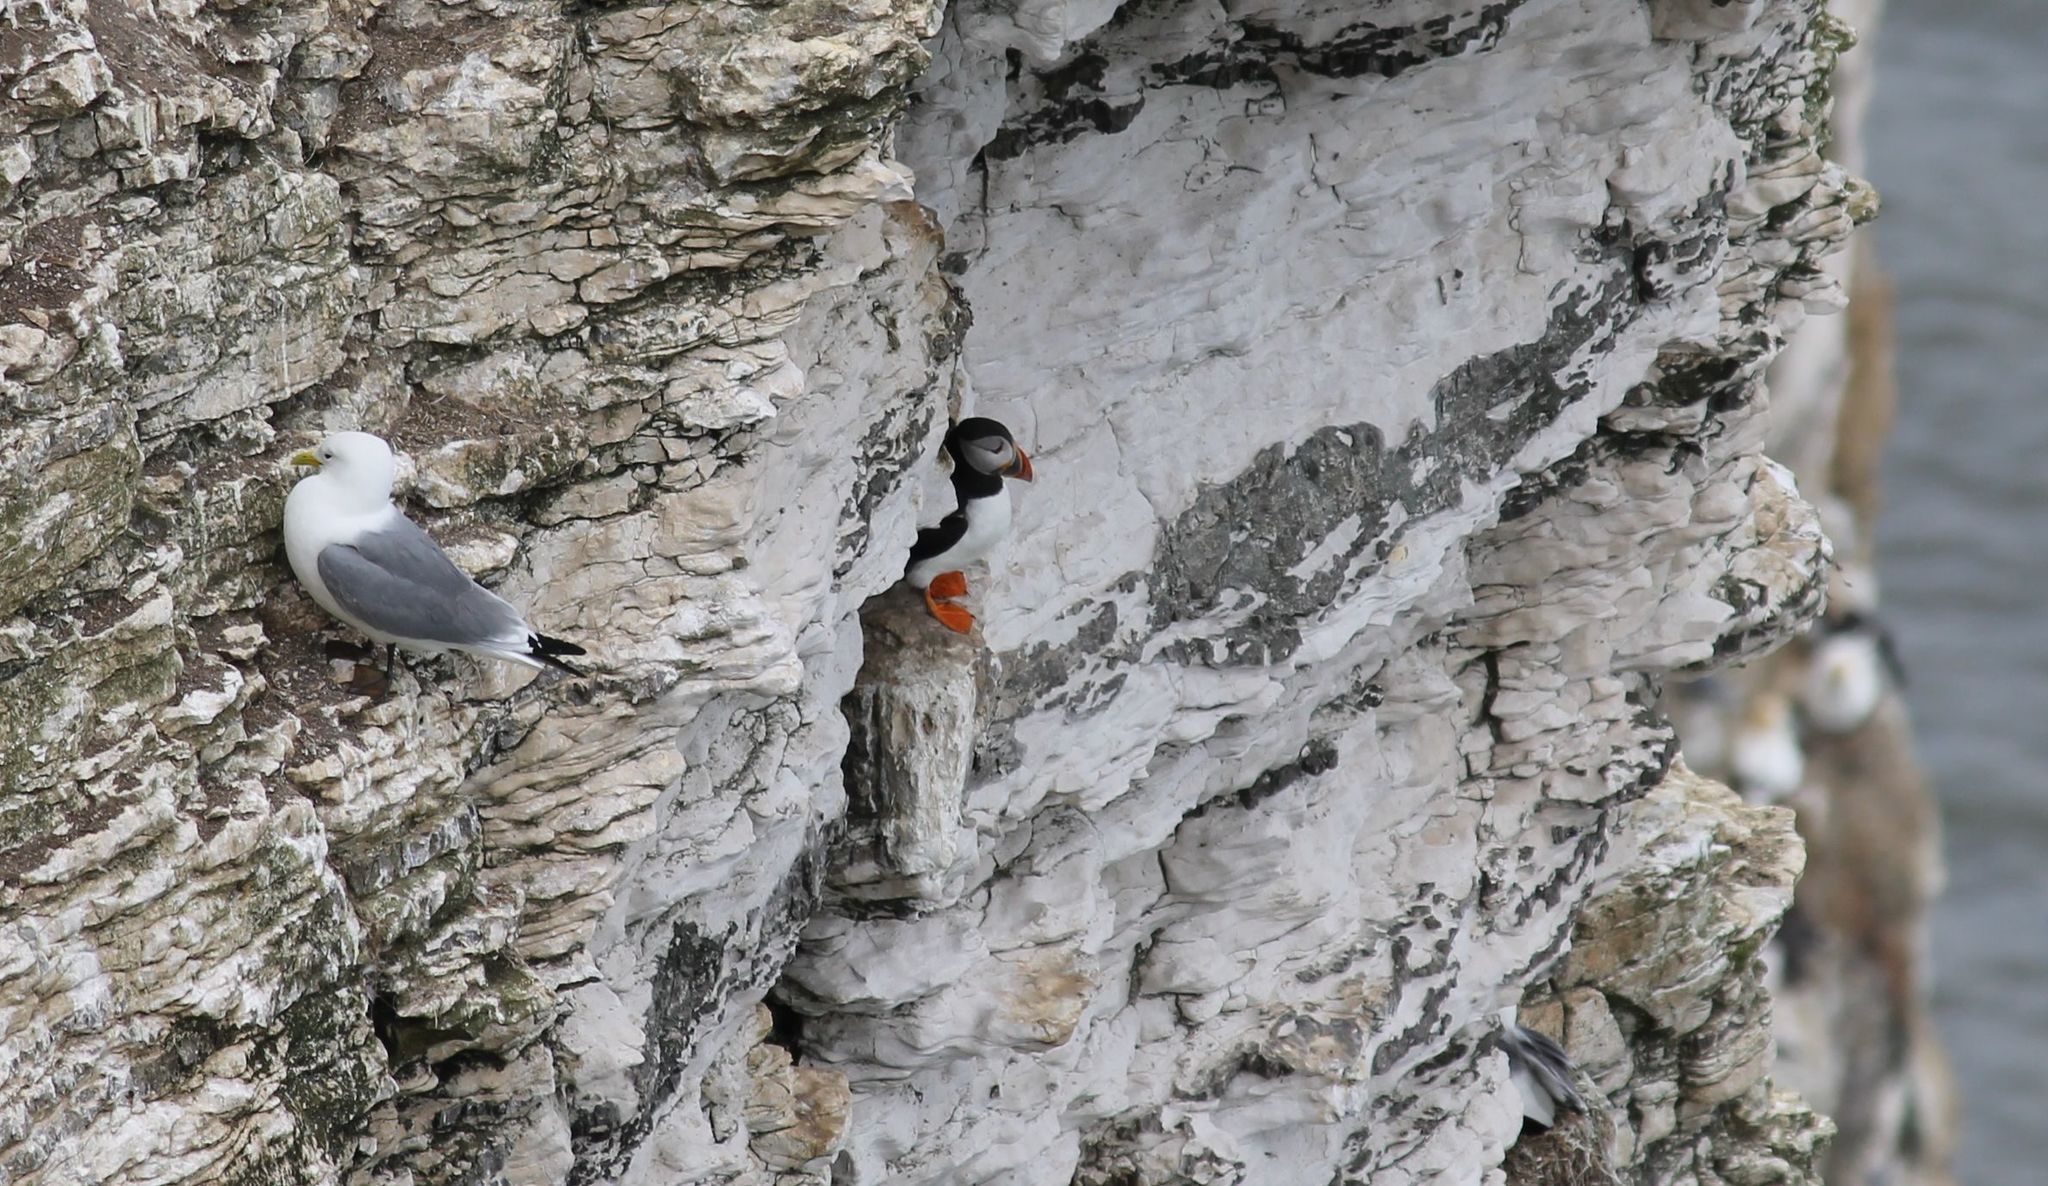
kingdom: Animalia
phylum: Chordata
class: Aves
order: Charadriiformes
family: Alcidae
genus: Fratercula
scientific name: Fratercula arctica
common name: Atlantic puffin
